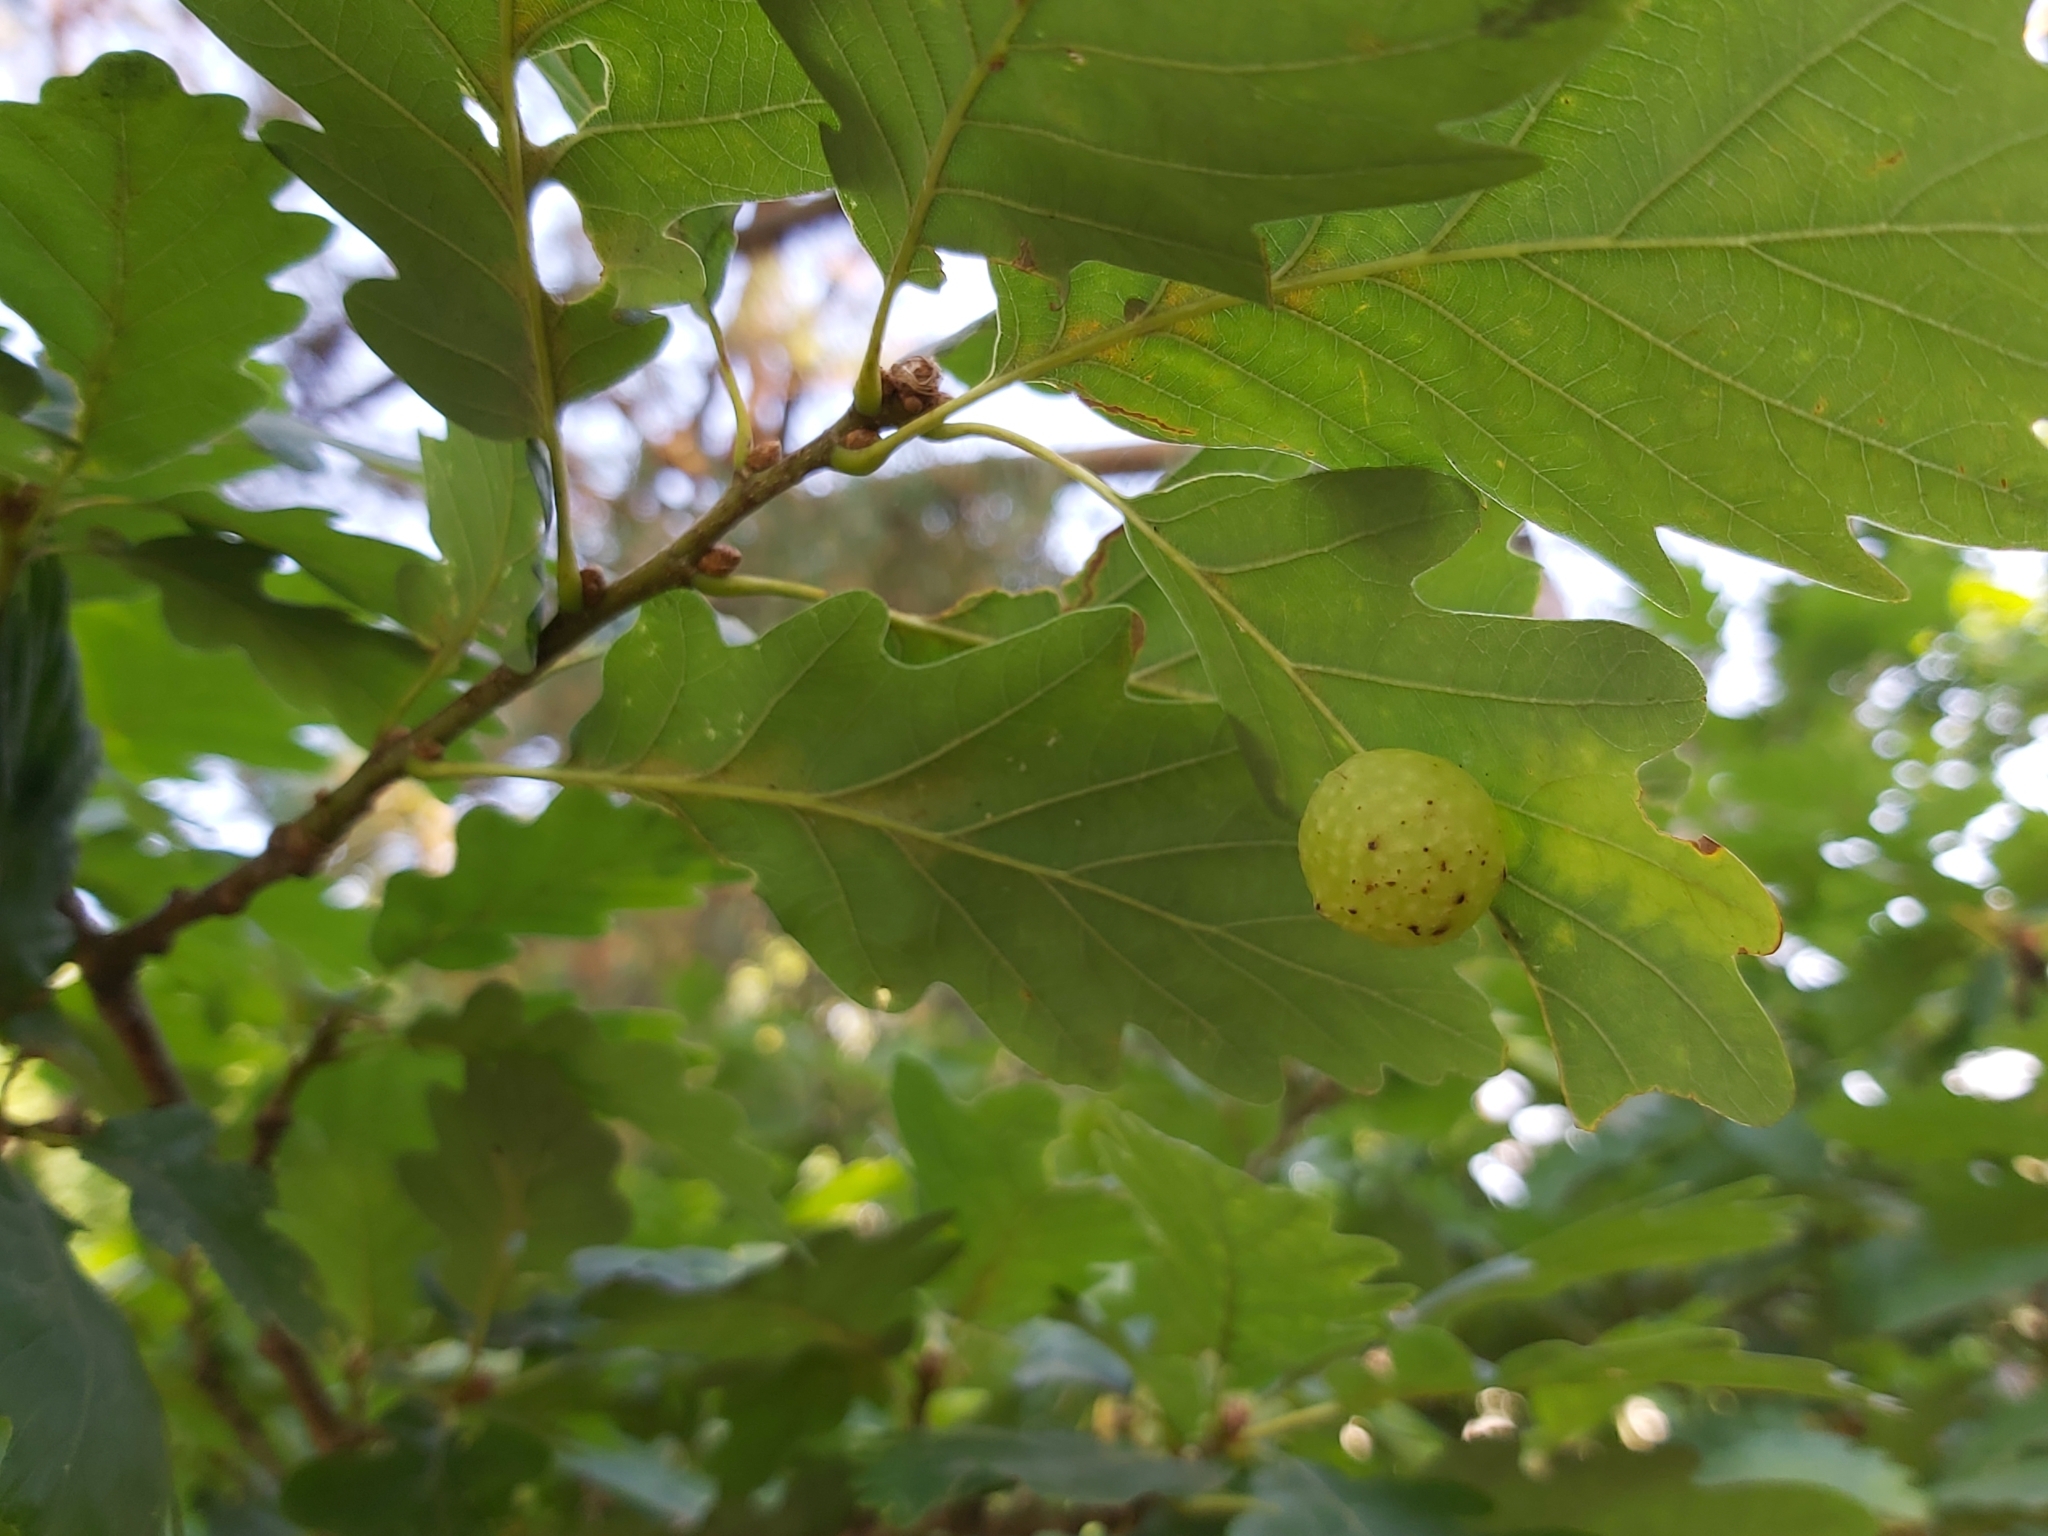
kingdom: Animalia
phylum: Arthropoda
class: Insecta
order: Hymenoptera
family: Cynipidae
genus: Cynips
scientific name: Cynips quercusfolii
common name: Cherry gall
